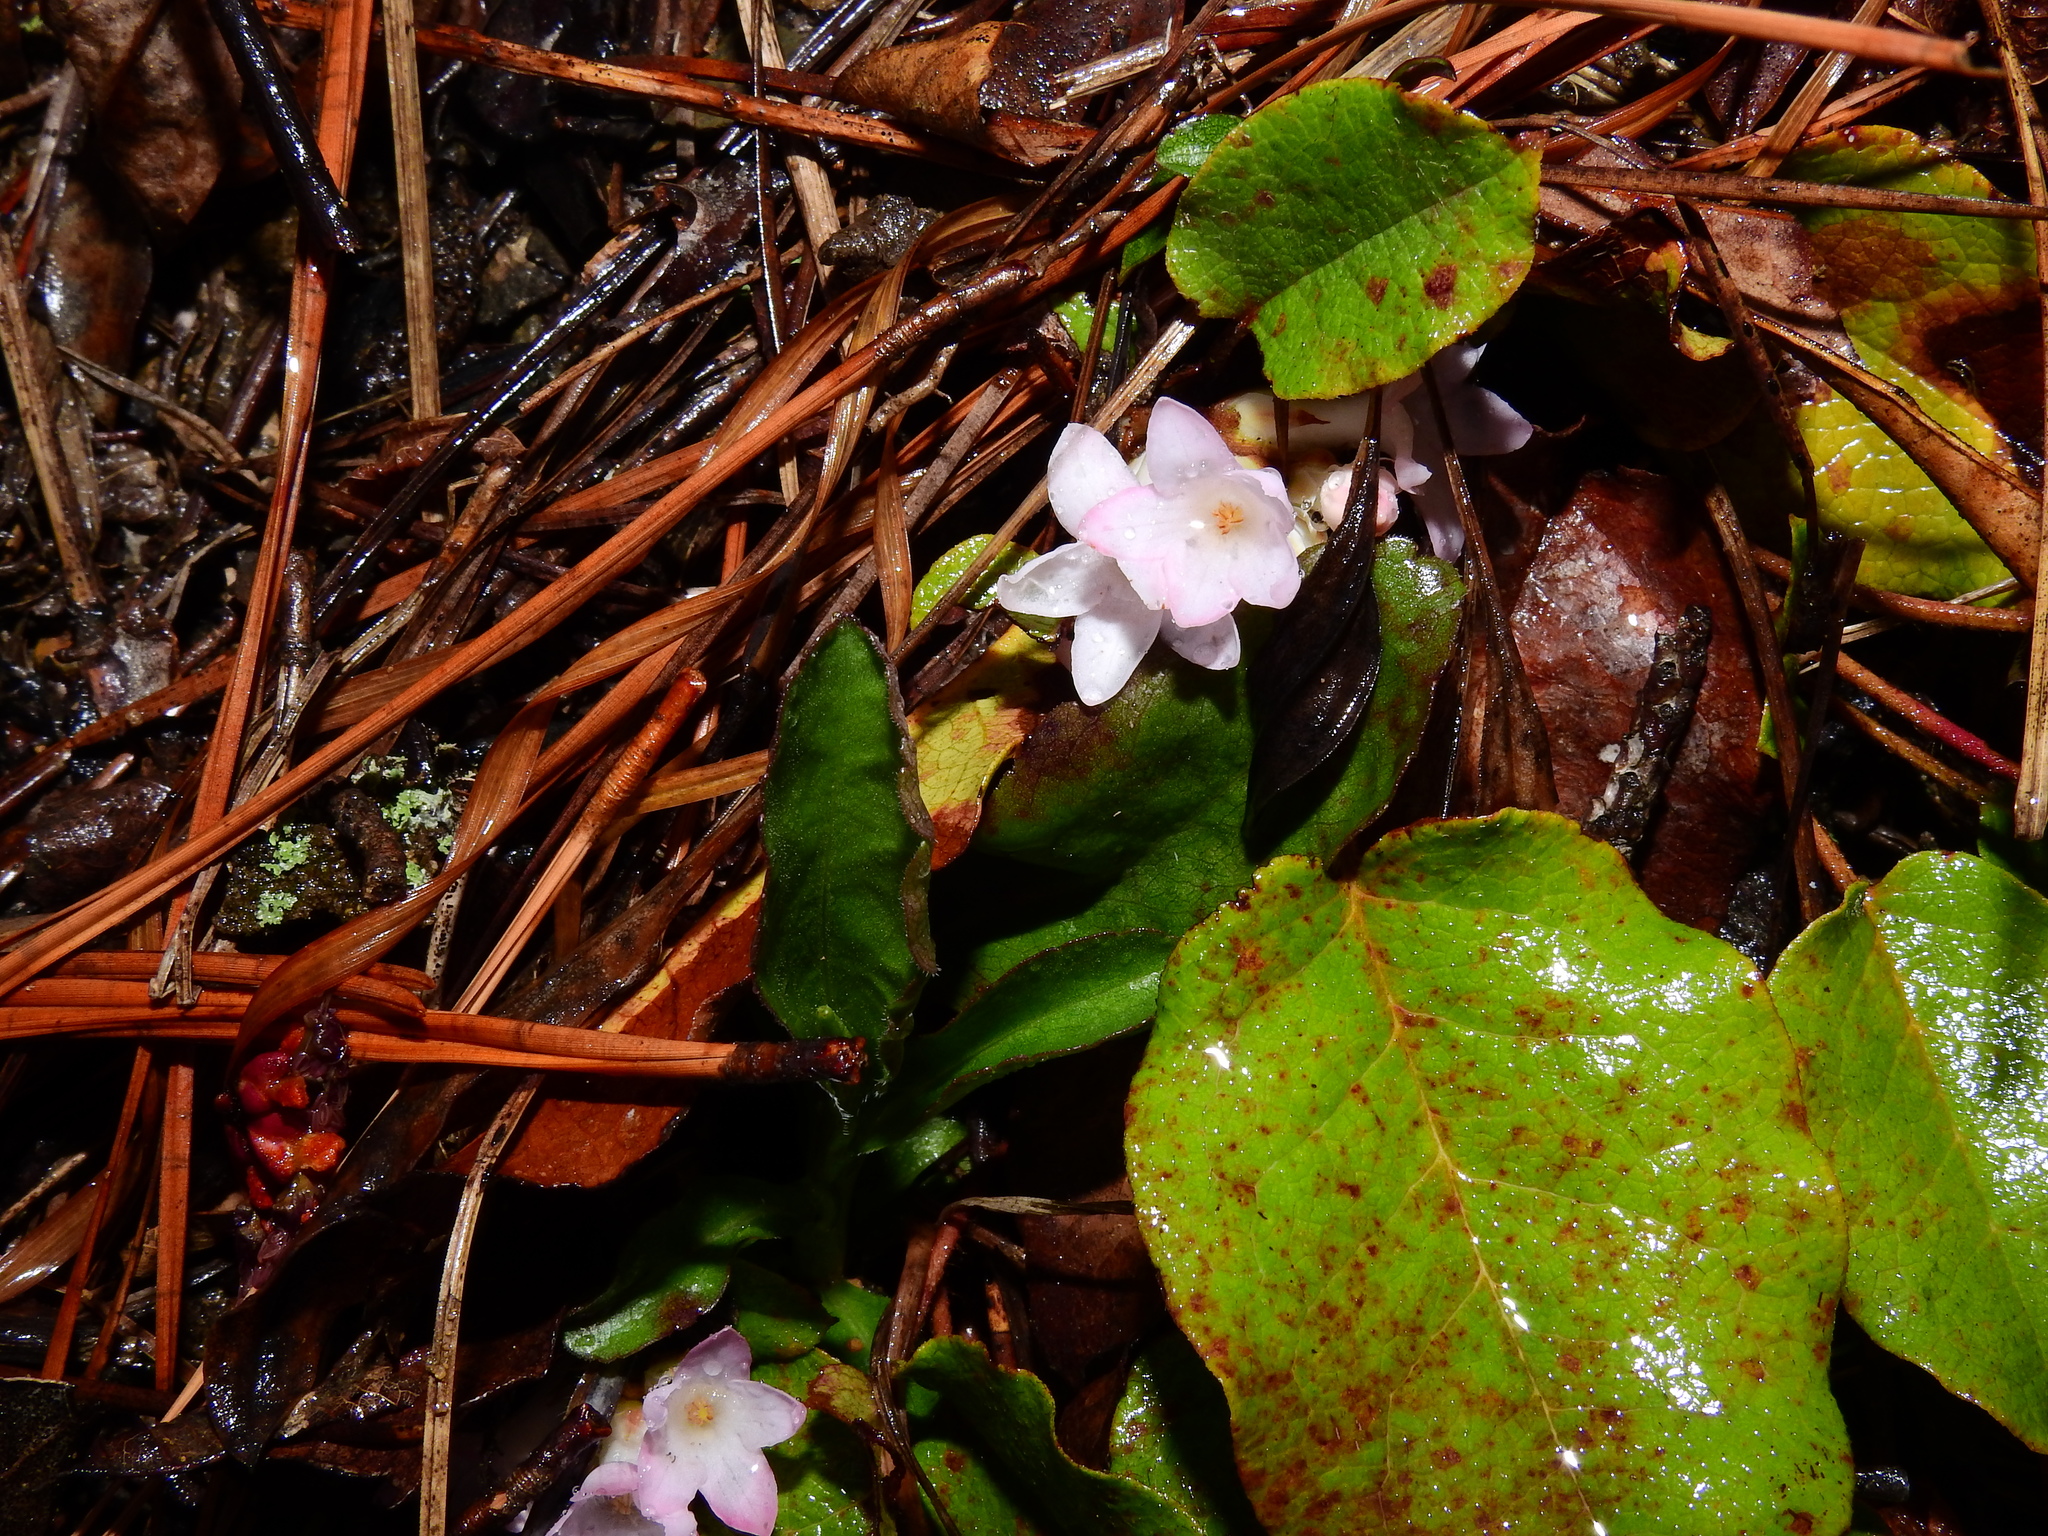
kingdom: Plantae
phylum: Tracheophyta
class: Magnoliopsida
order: Ericales
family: Ericaceae
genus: Epigaea
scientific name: Epigaea repens
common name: Gravelroot
